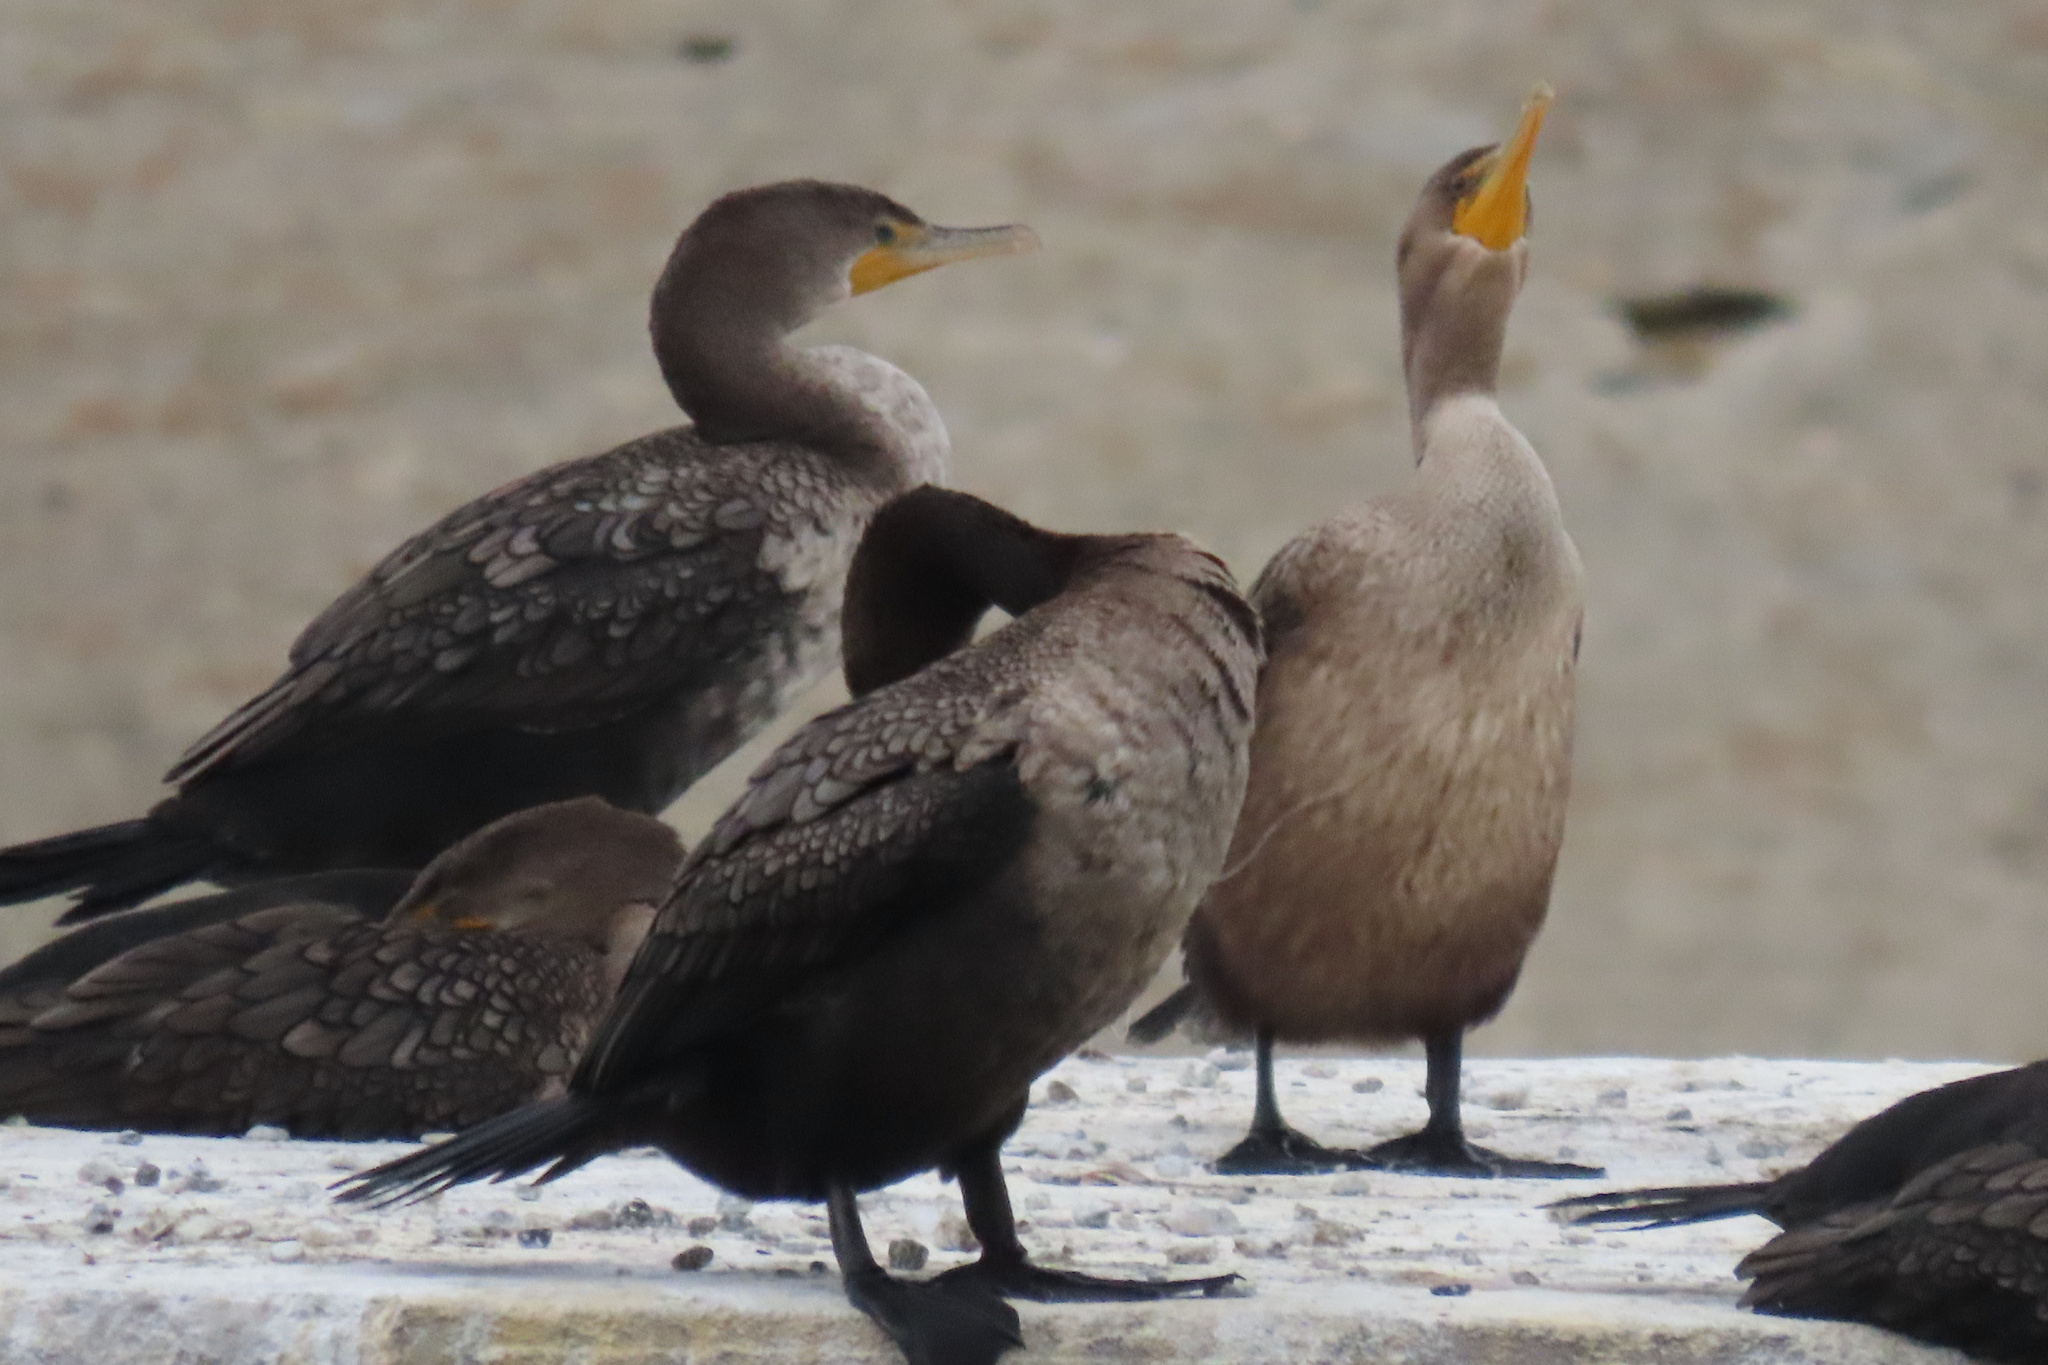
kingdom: Animalia
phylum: Chordata
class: Aves
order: Suliformes
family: Phalacrocoracidae
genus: Phalacrocorax
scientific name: Phalacrocorax auritus
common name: Double-crested cormorant
